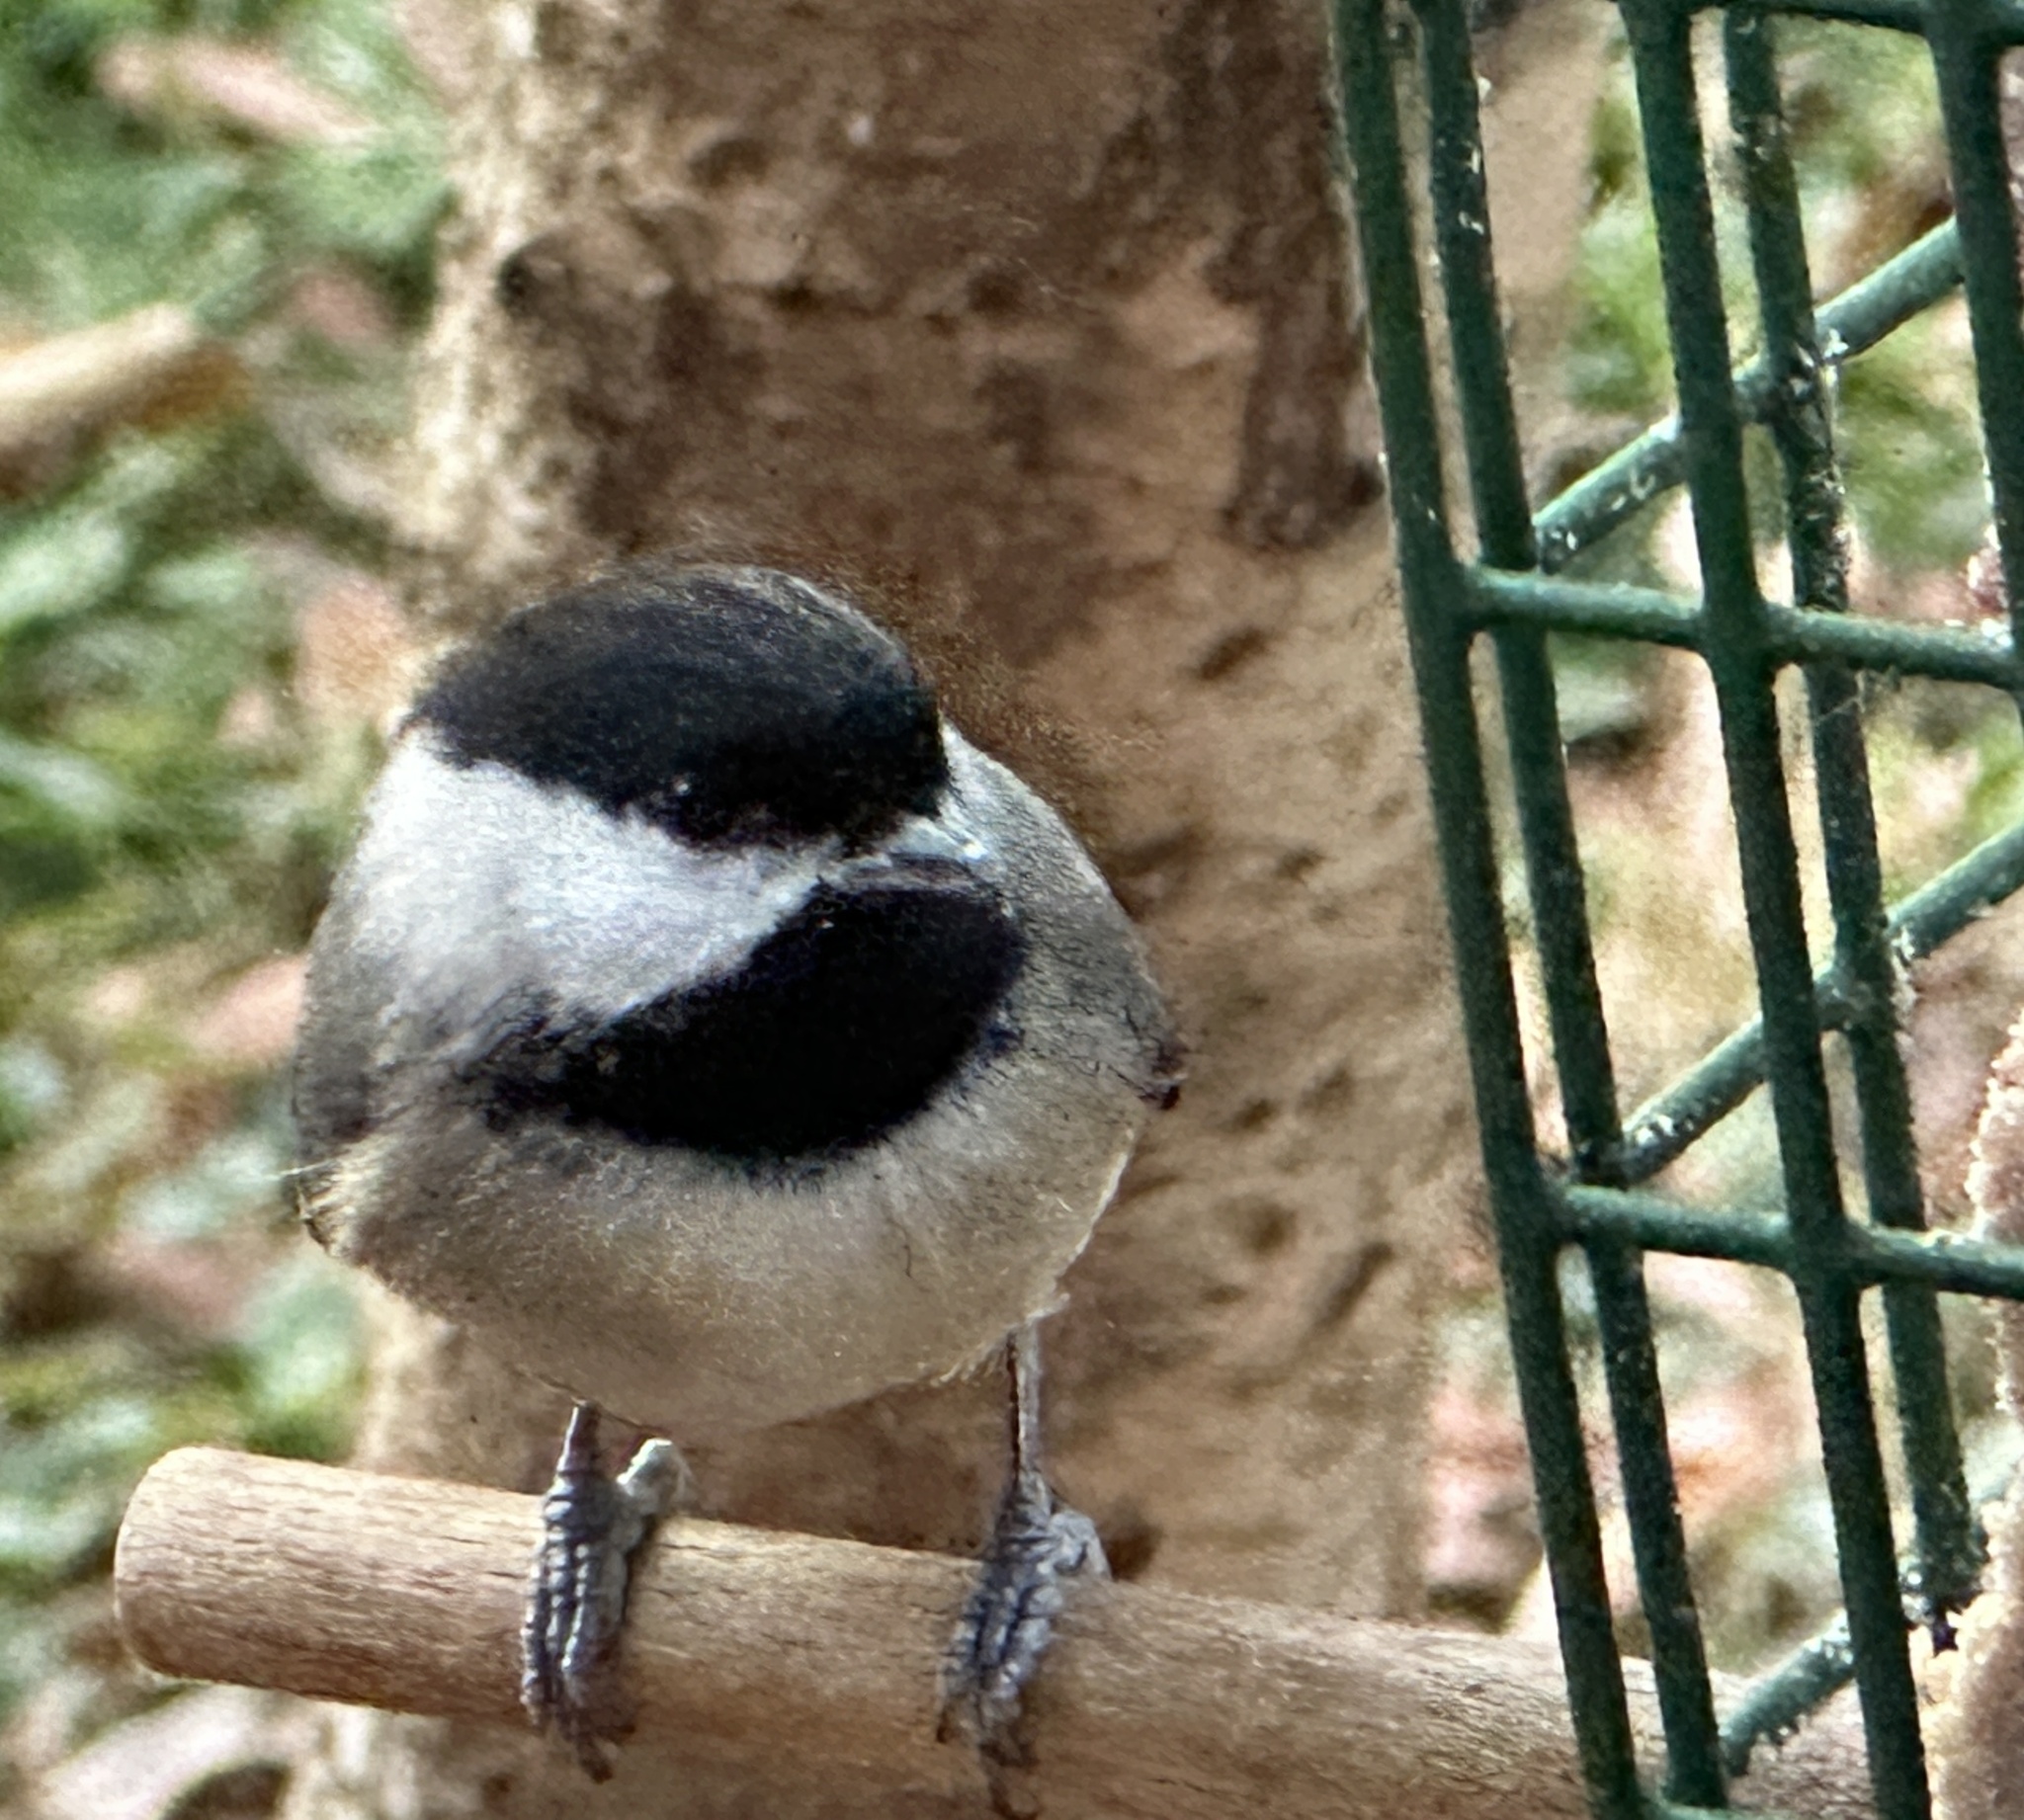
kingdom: Animalia
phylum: Chordata
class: Aves
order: Passeriformes
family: Paridae
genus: Poecile
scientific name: Poecile carolinensis
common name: Carolina chickadee
